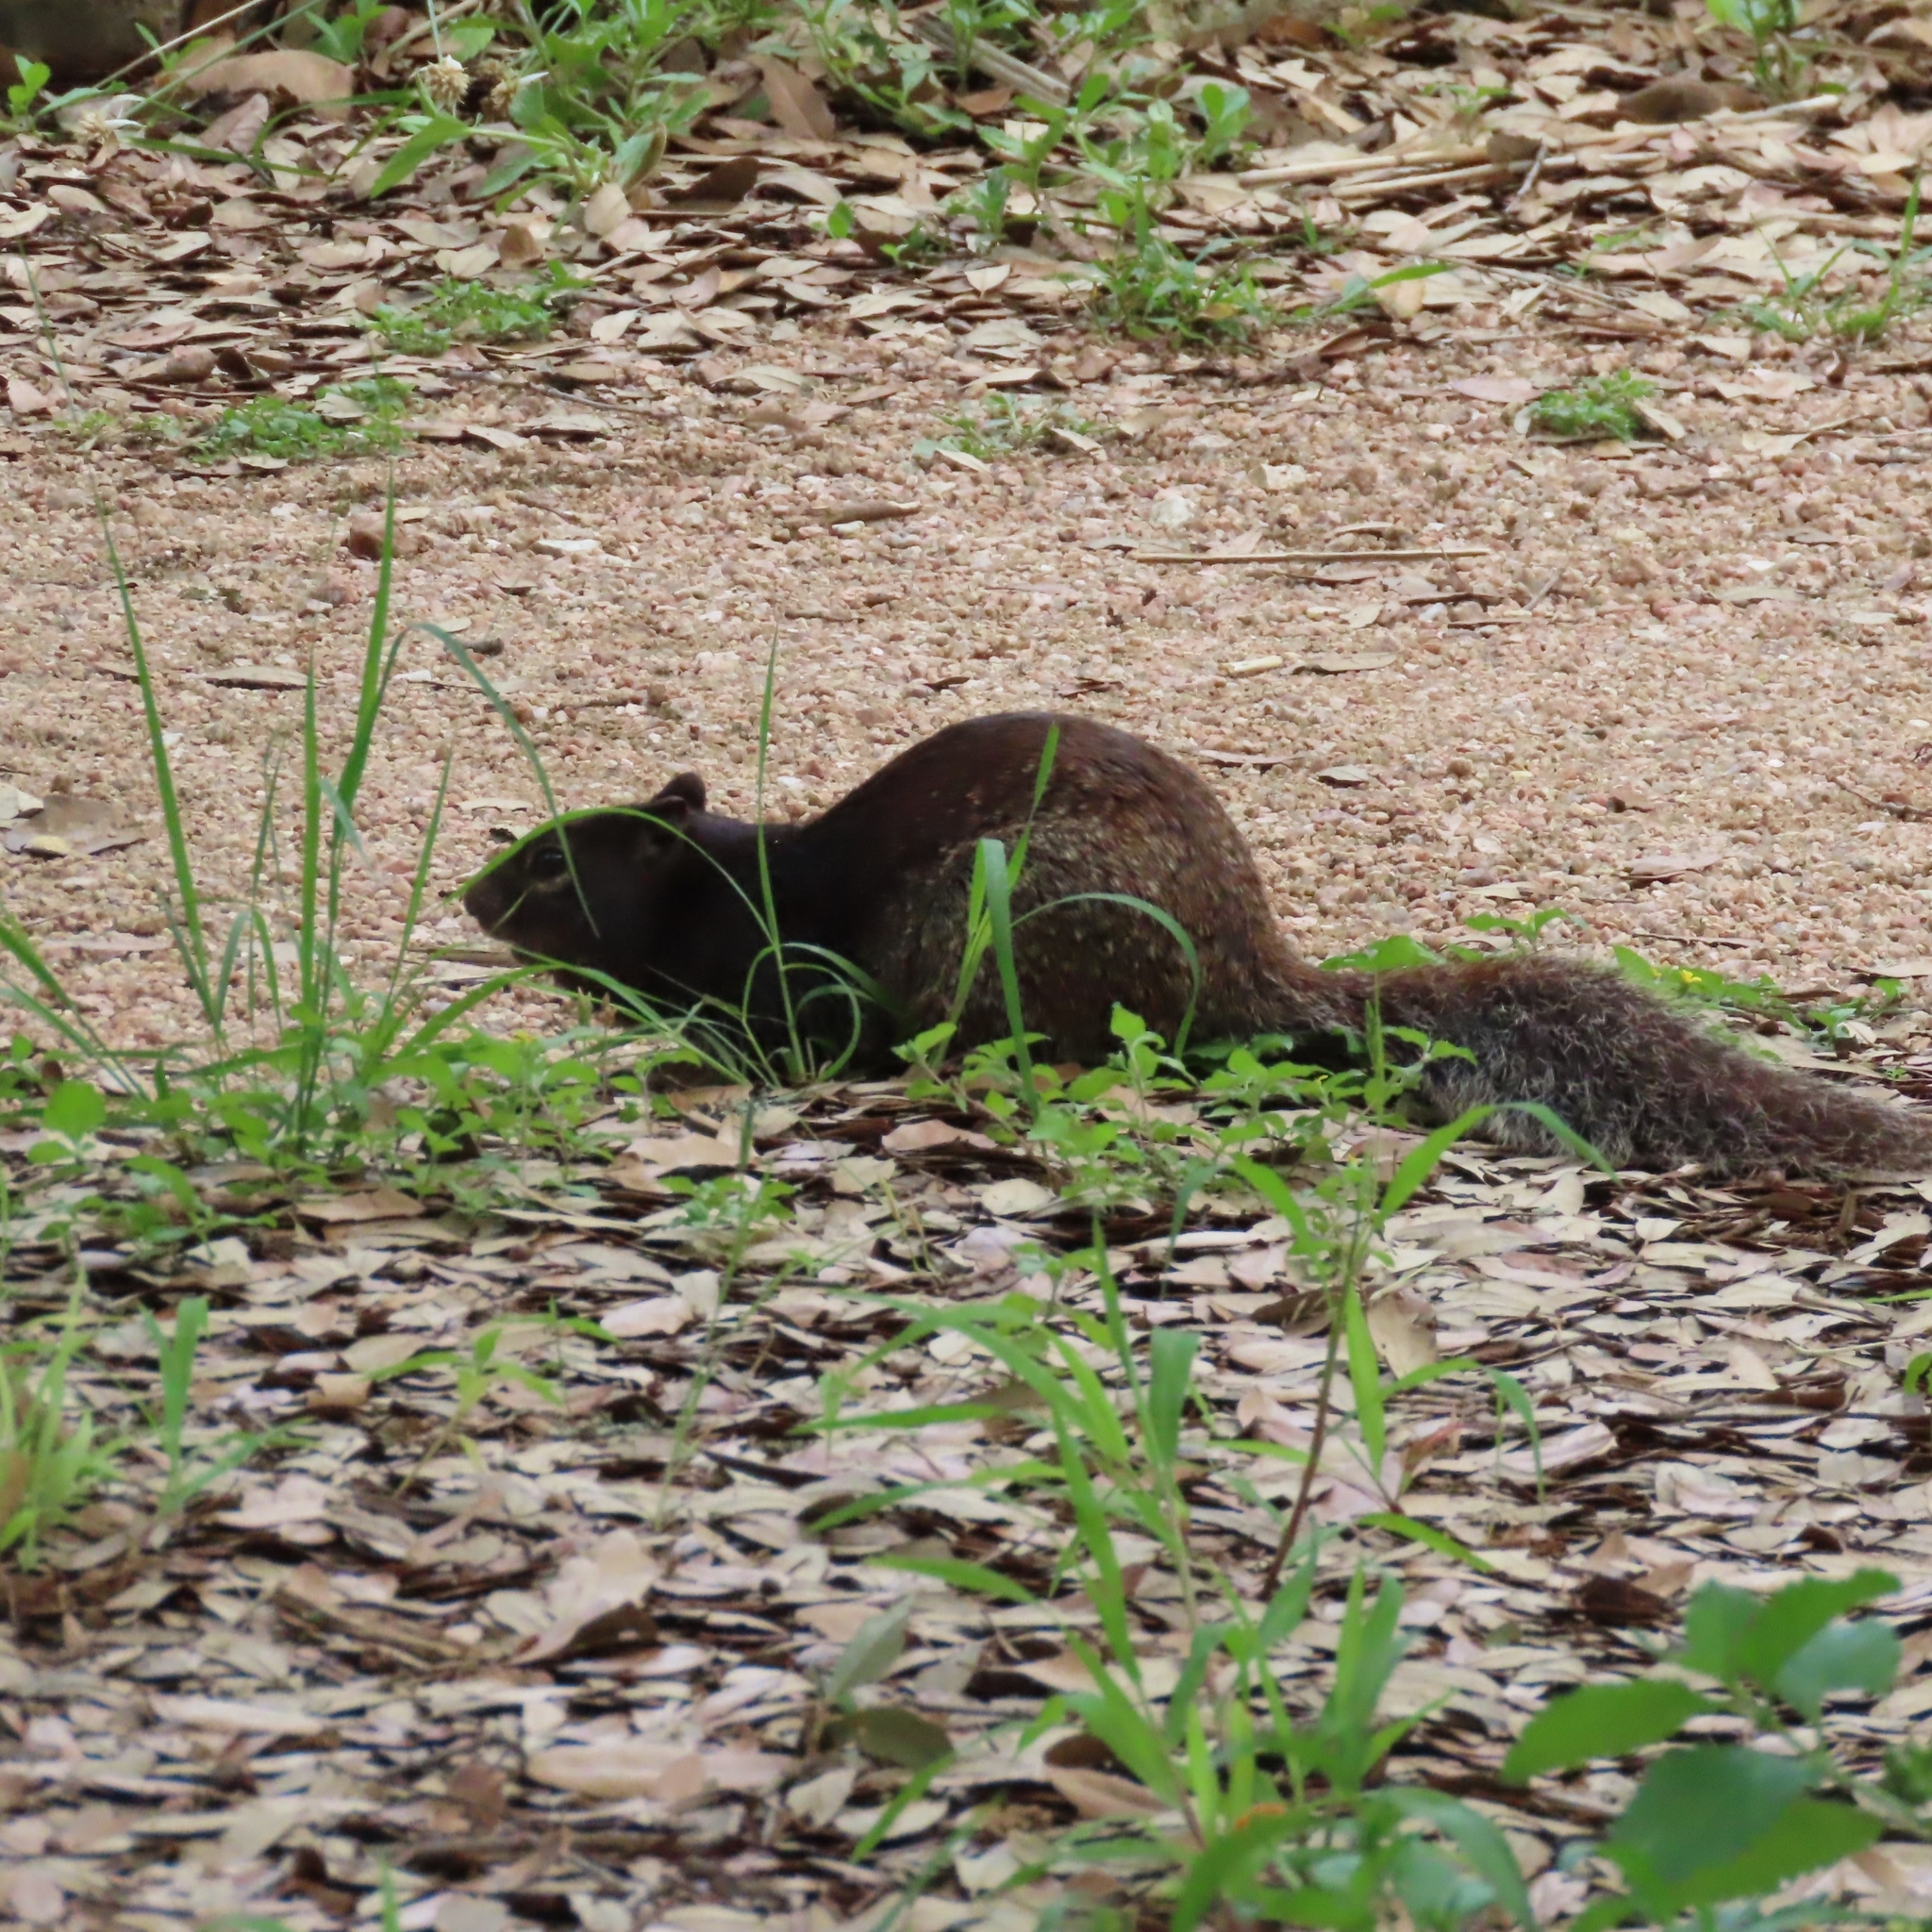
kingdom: Animalia
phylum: Chordata
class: Mammalia
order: Rodentia
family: Sciuridae
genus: Otospermophilus
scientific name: Otospermophilus variegatus
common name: Rock squirrel
